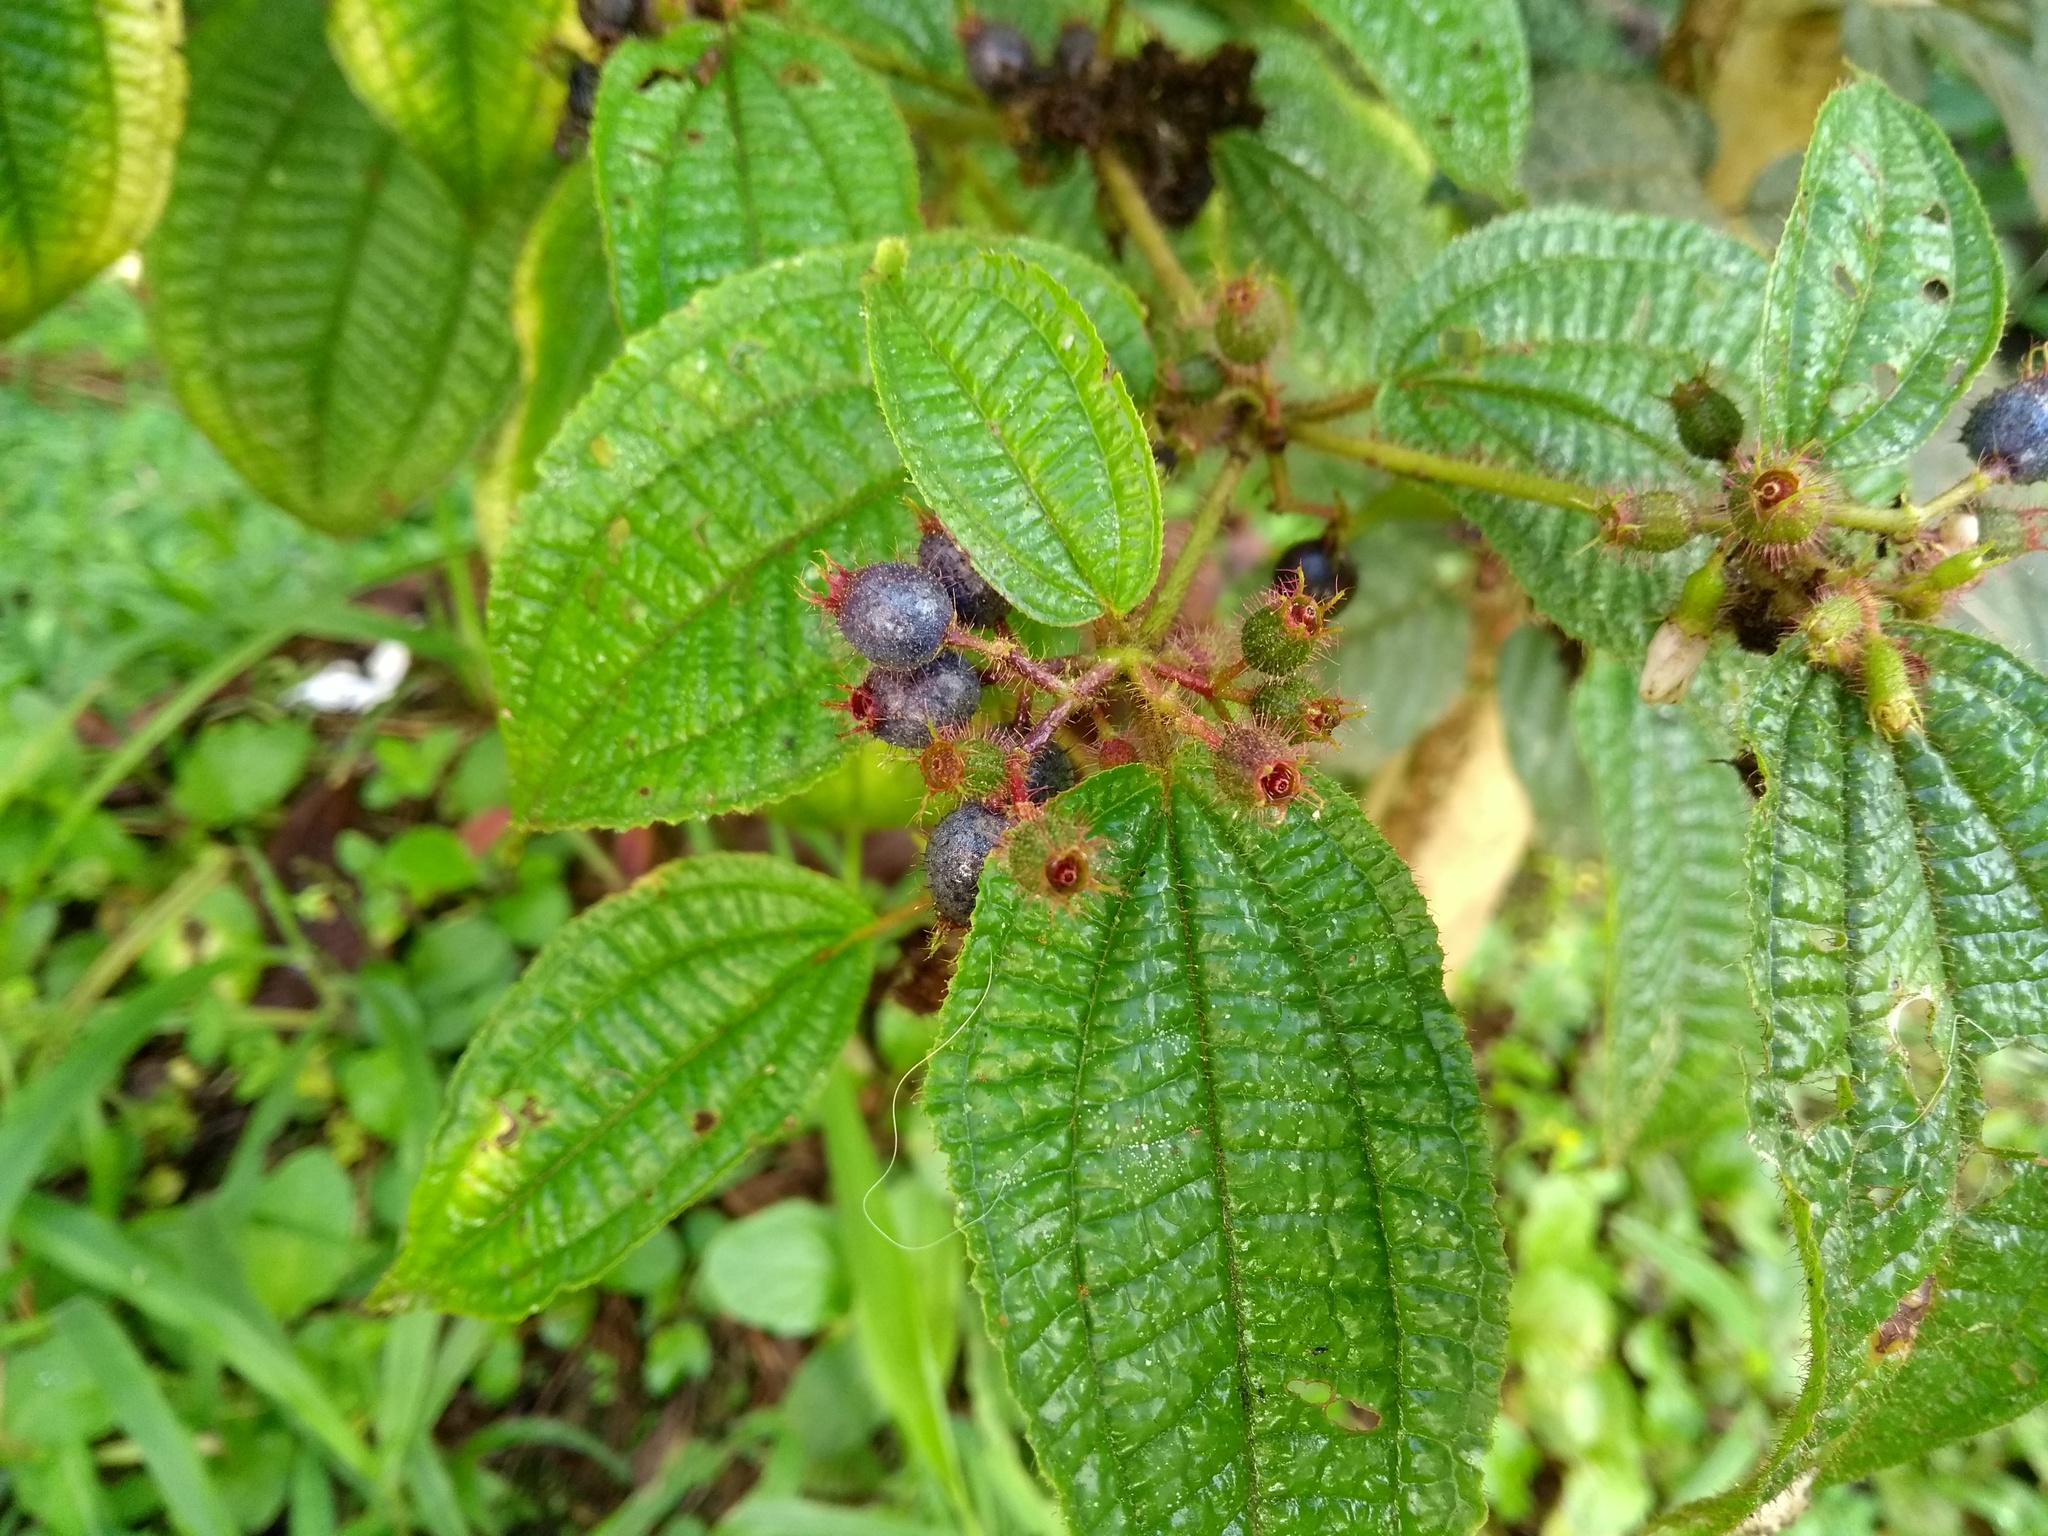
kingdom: Plantae
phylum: Tracheophyta
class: Magnoliopsida
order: Myrtales
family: Melastomataceae
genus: Miconia
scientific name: Miconia crenata
